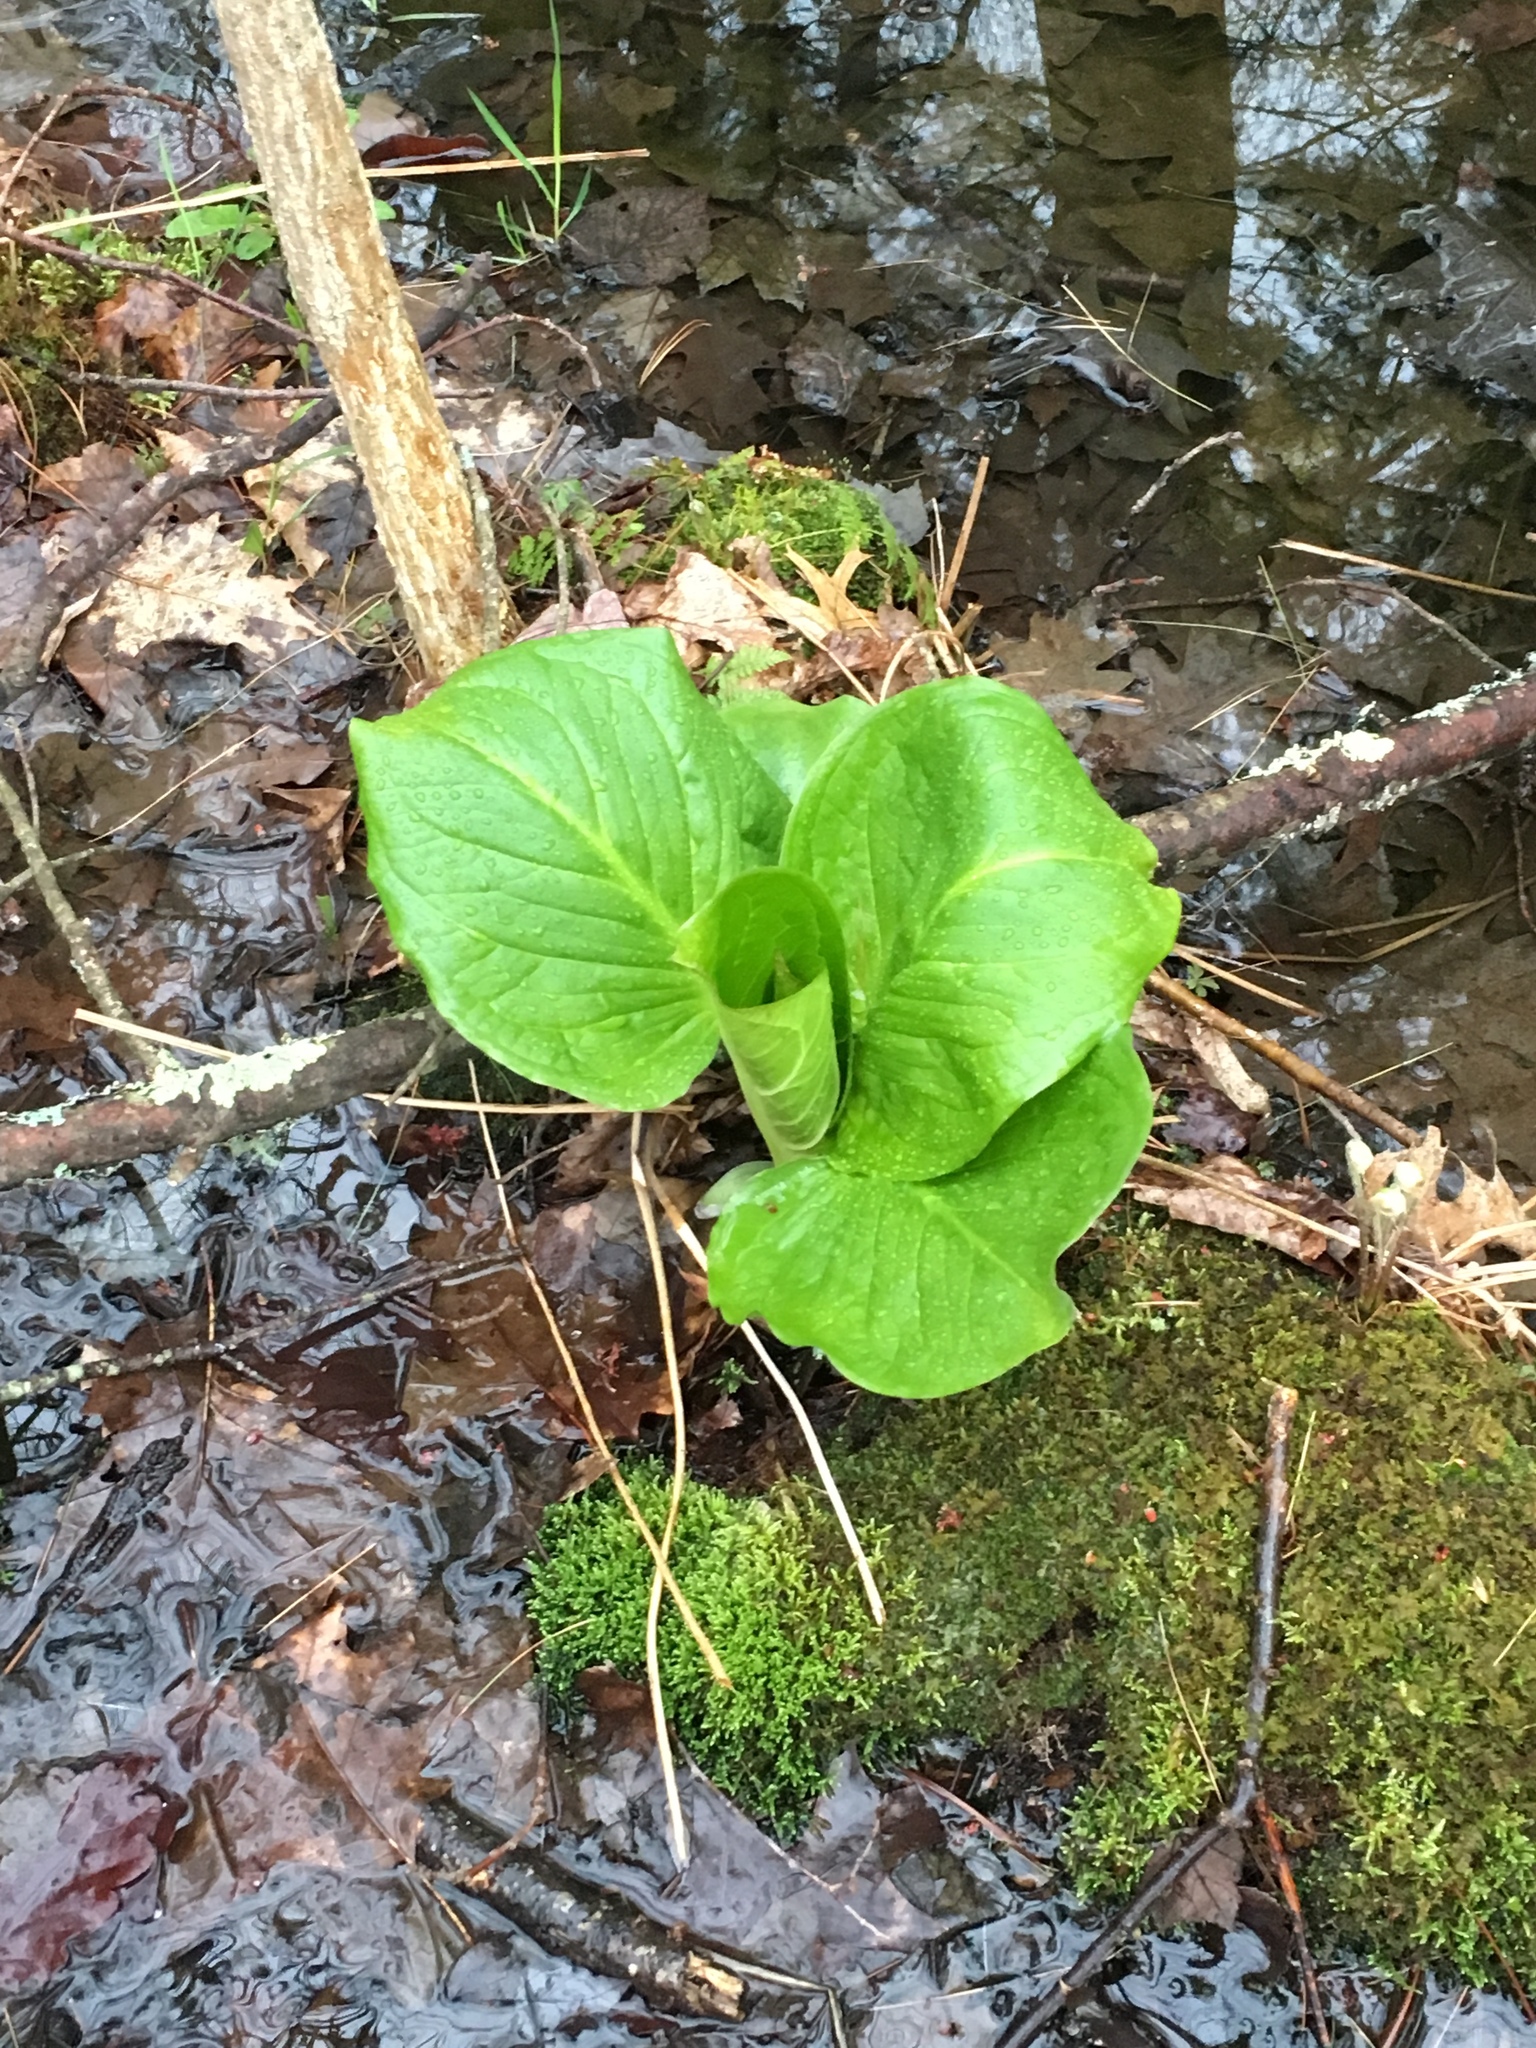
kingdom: Plantae
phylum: Tracheophyta
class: Liliopsida
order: Alismatales
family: Araceae
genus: Symplocarpus
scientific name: Symplocarpus foetidus
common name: Eastern skunk cabbage
